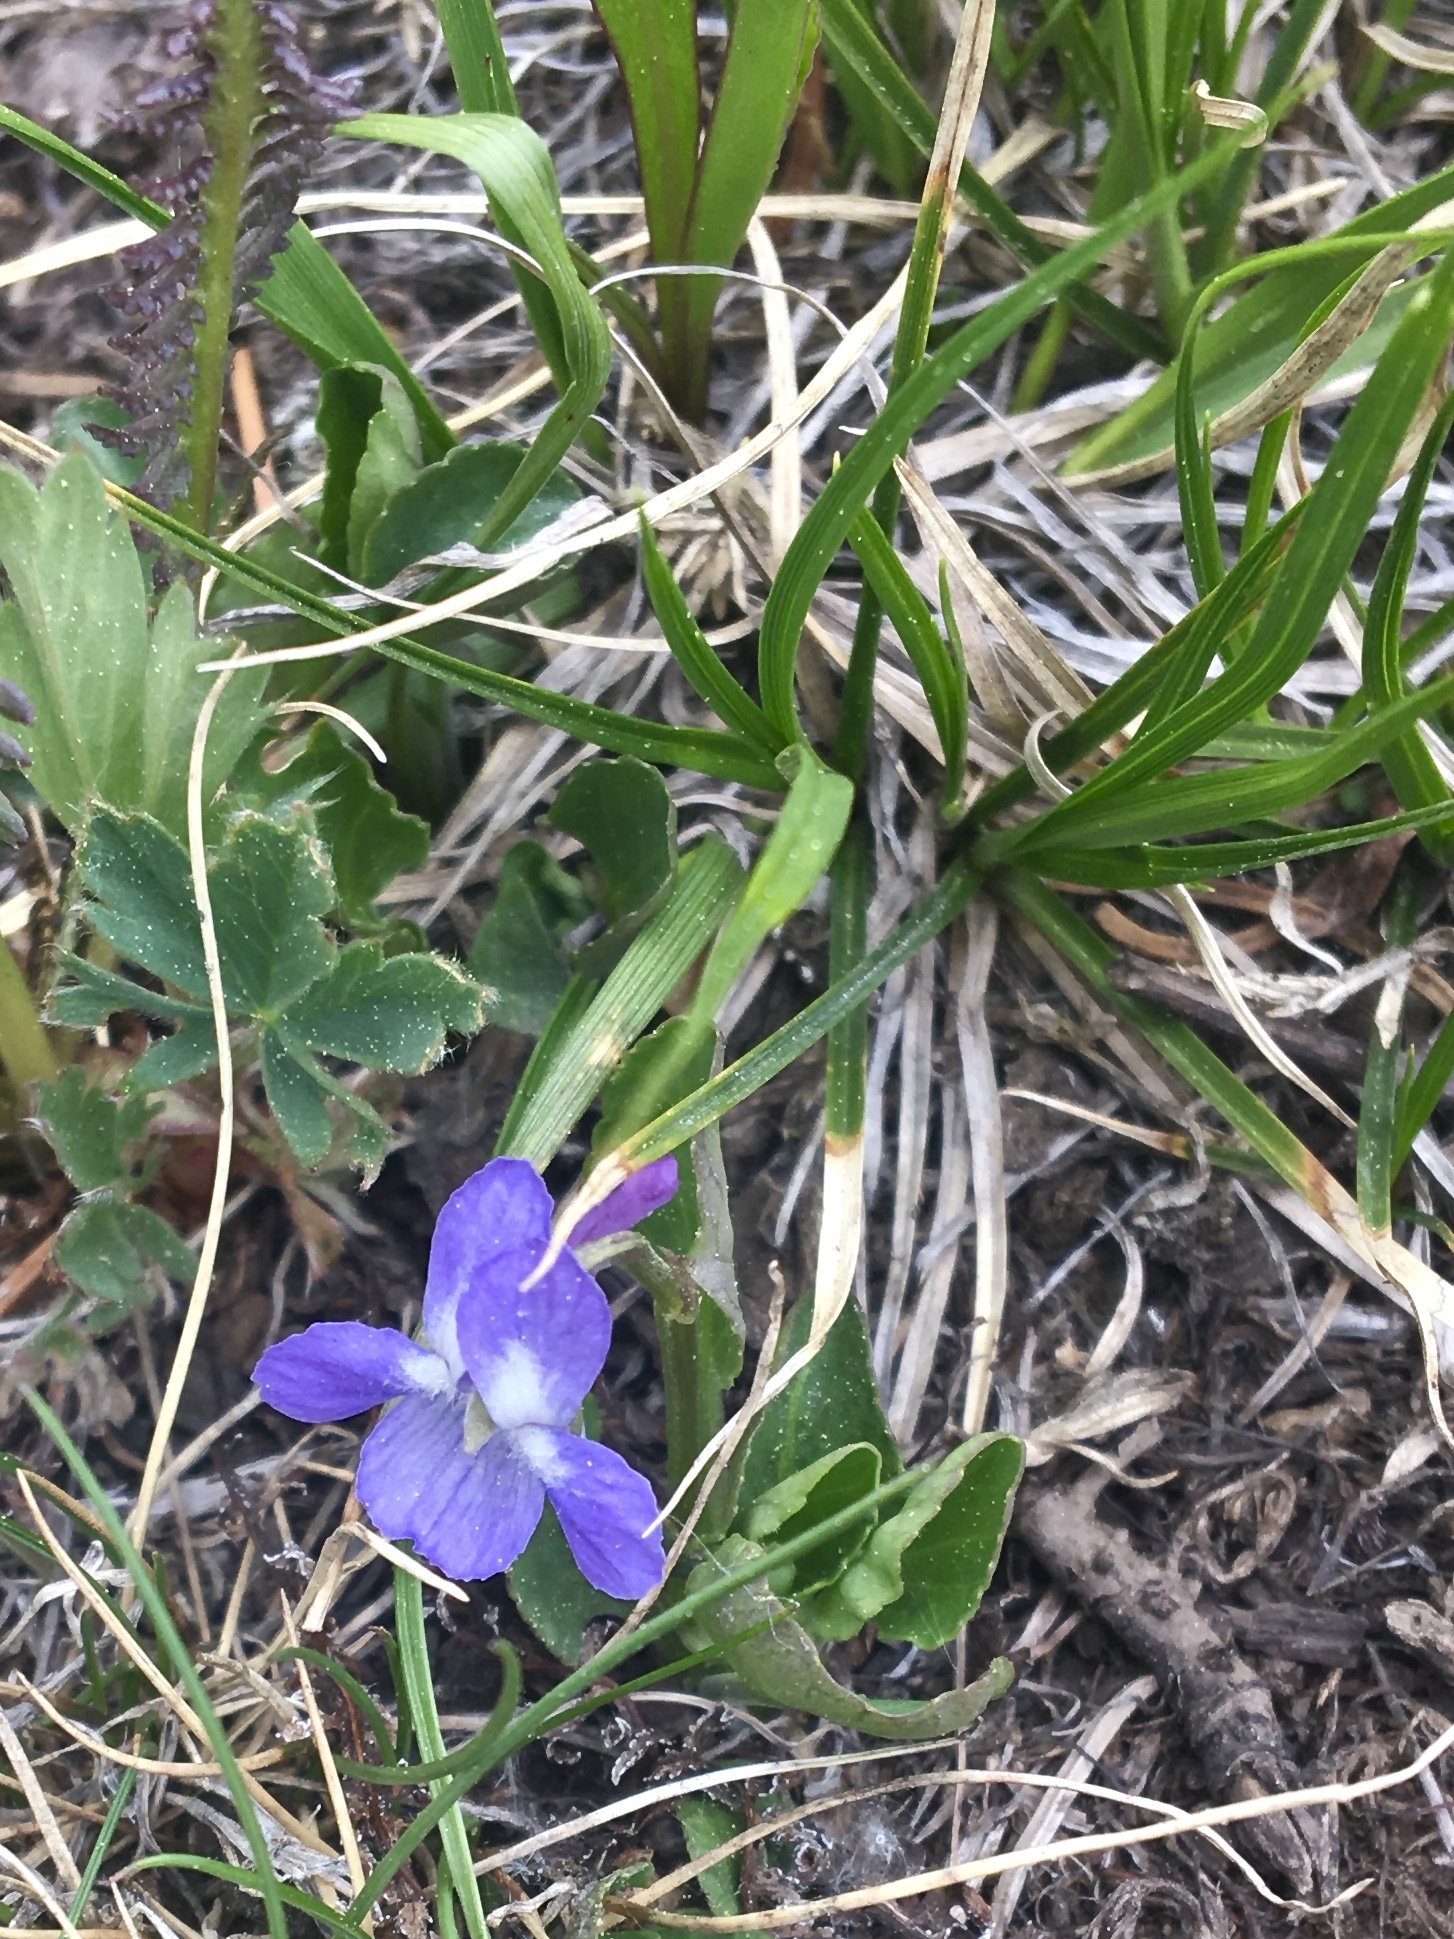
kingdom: Plantae
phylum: Tracheophyta
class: Magnoliopsida
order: Malpighiales
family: Violaceae
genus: Viola
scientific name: Viola adunca
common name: Sand violet
